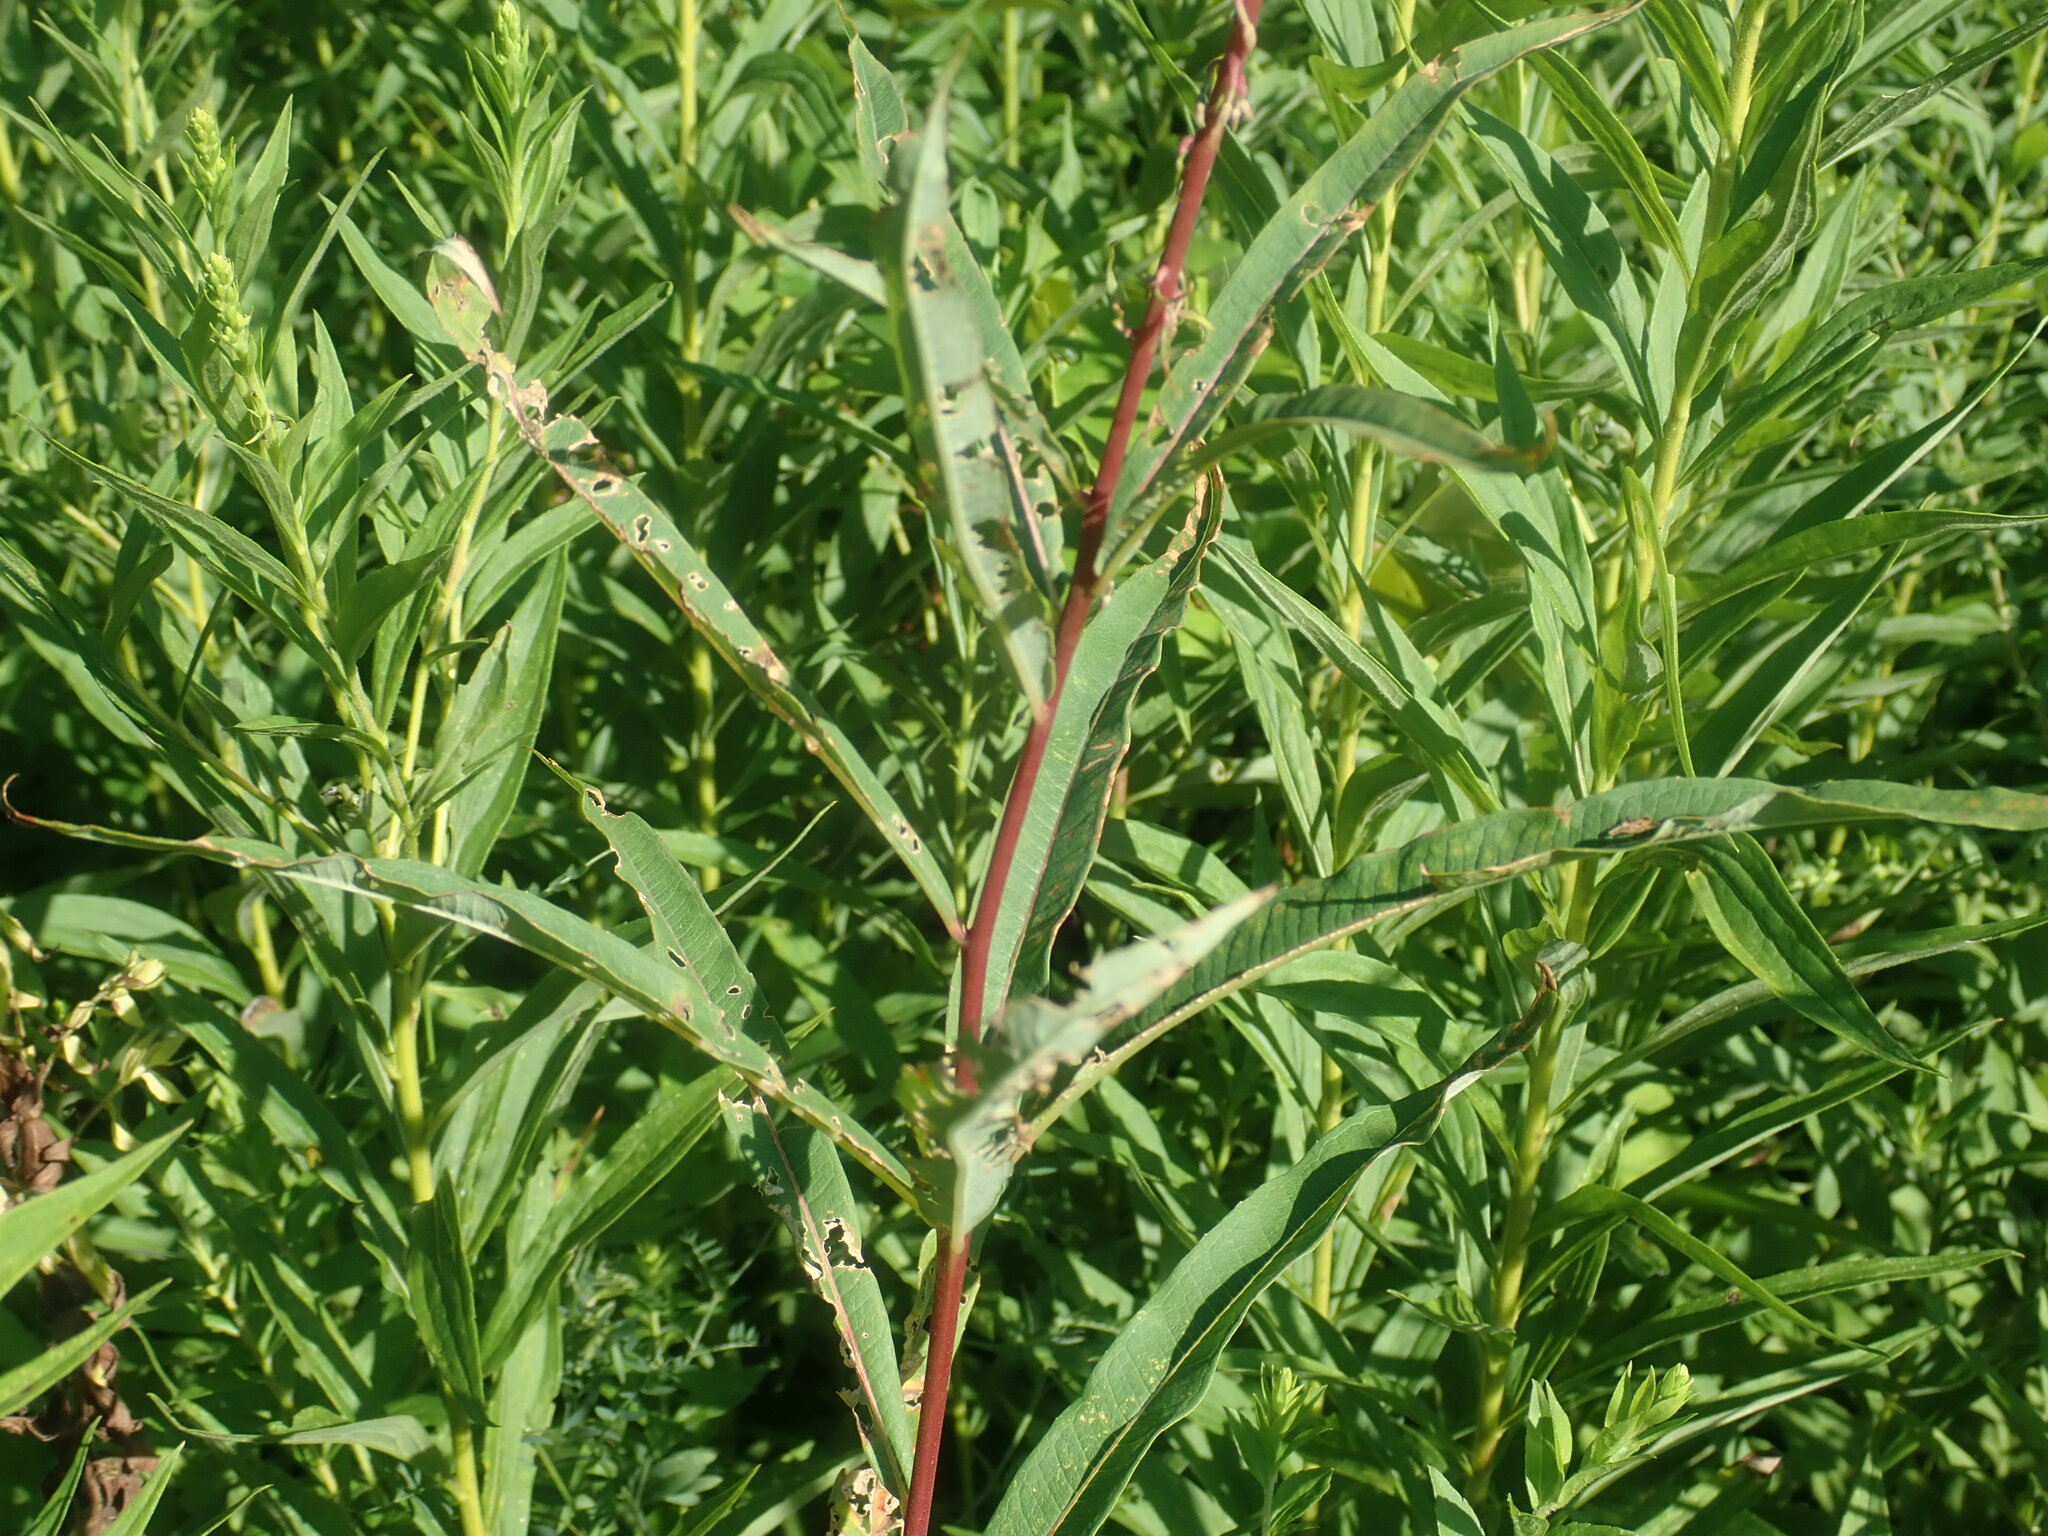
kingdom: Plantae
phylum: Tracheophyta
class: Magnoliopsida
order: Myrtales
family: Onagraceae
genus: Chamaenerion
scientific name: Chamaenerion angustifolium
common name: Fireweed
